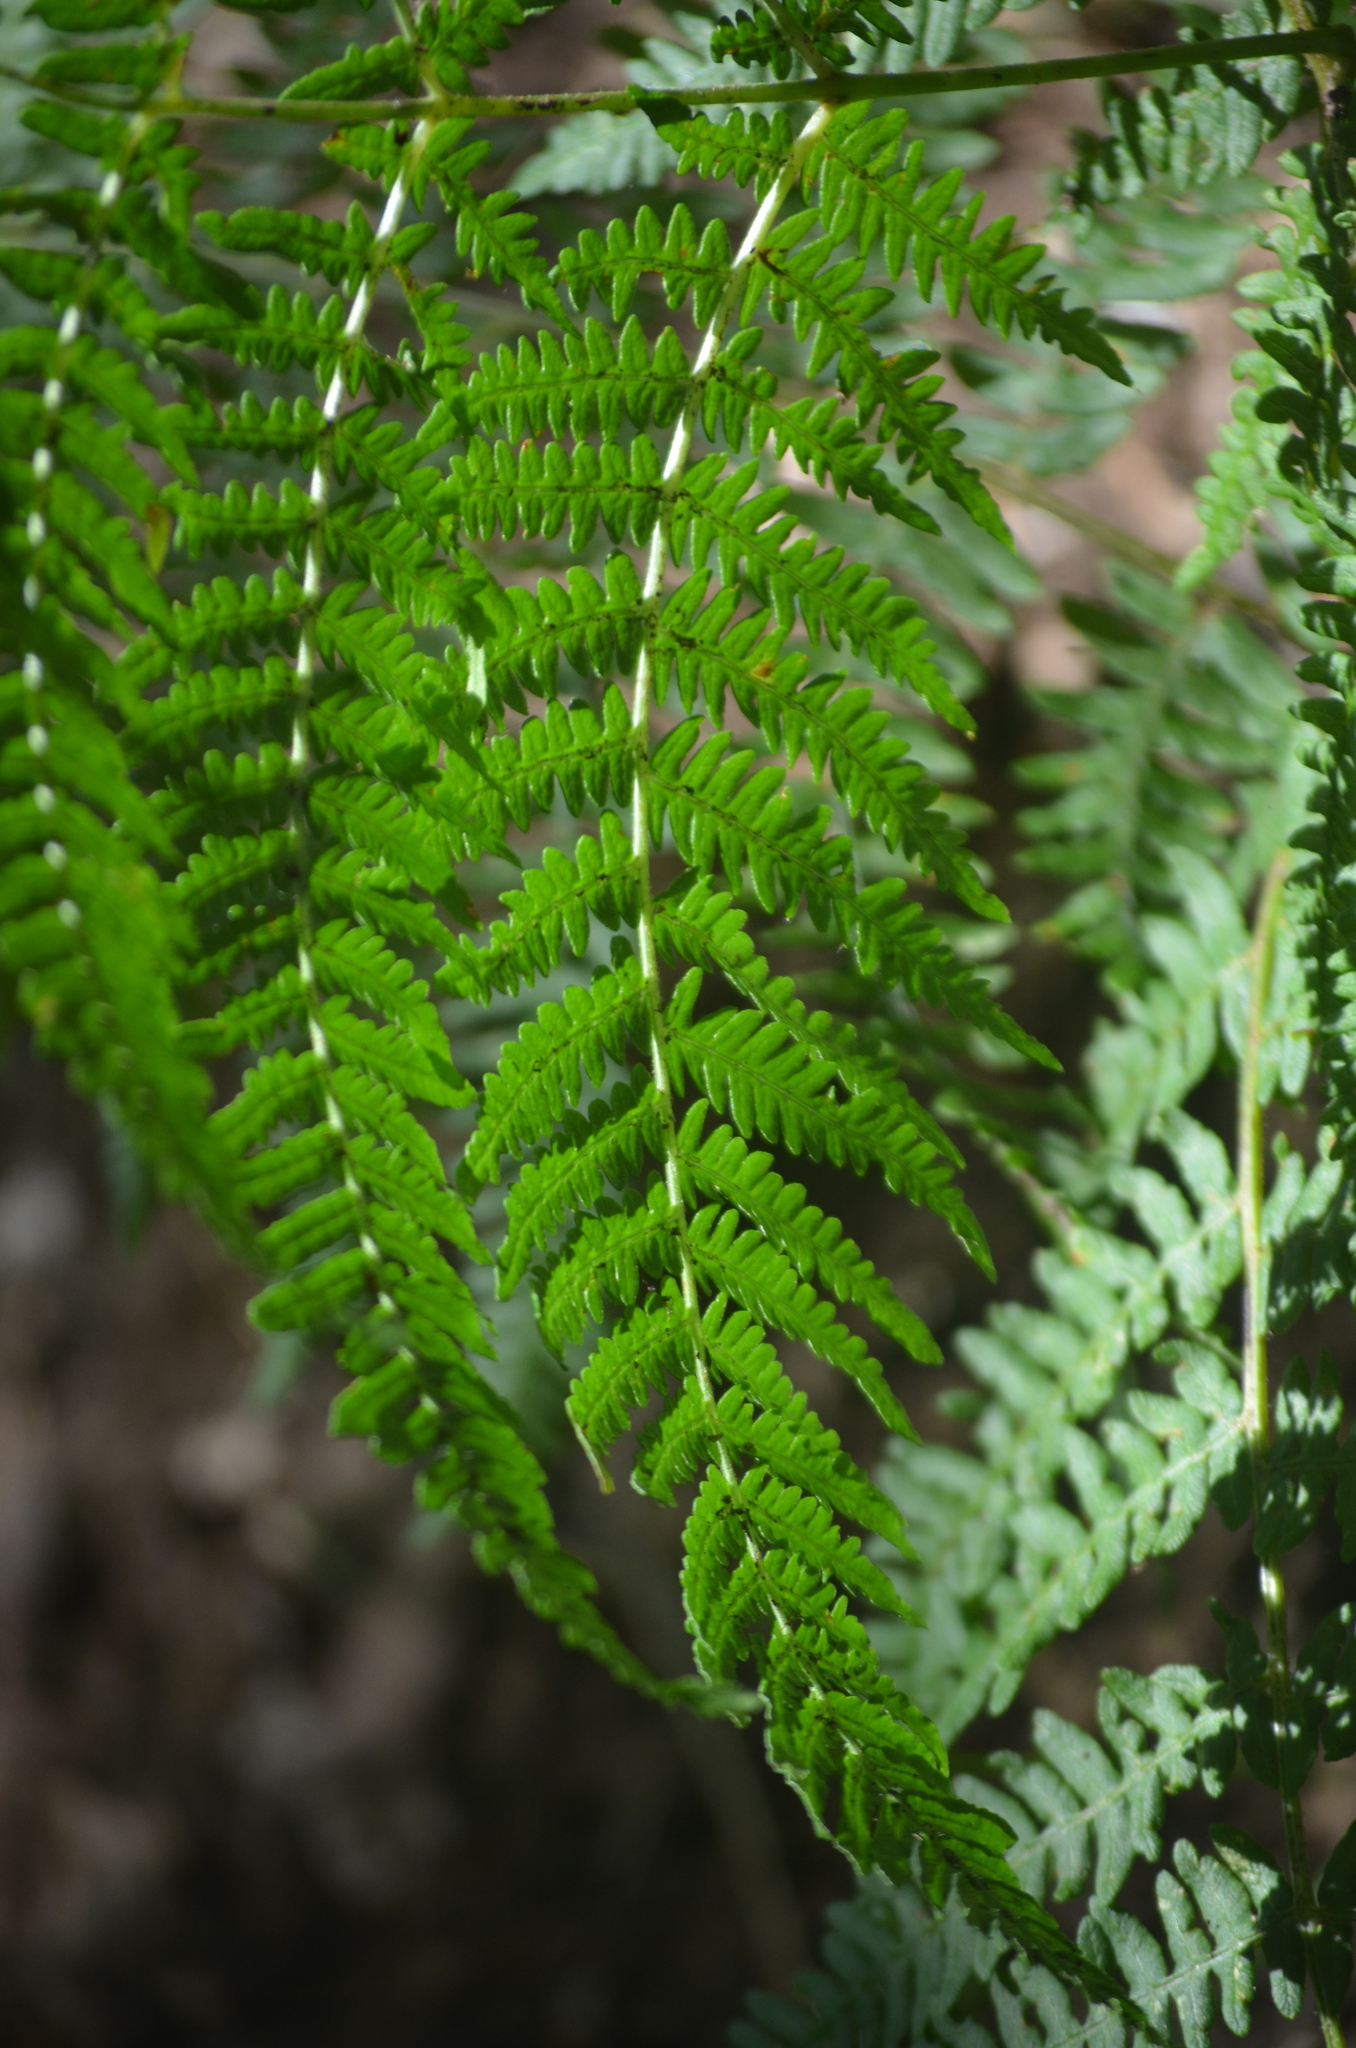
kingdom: Plantae
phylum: Tracheophyta
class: Polypodiopsida
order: Polypodiales
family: Dennstaedtiaceae
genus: Pteridium
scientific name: Pteridium aquilinum
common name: Bracken
